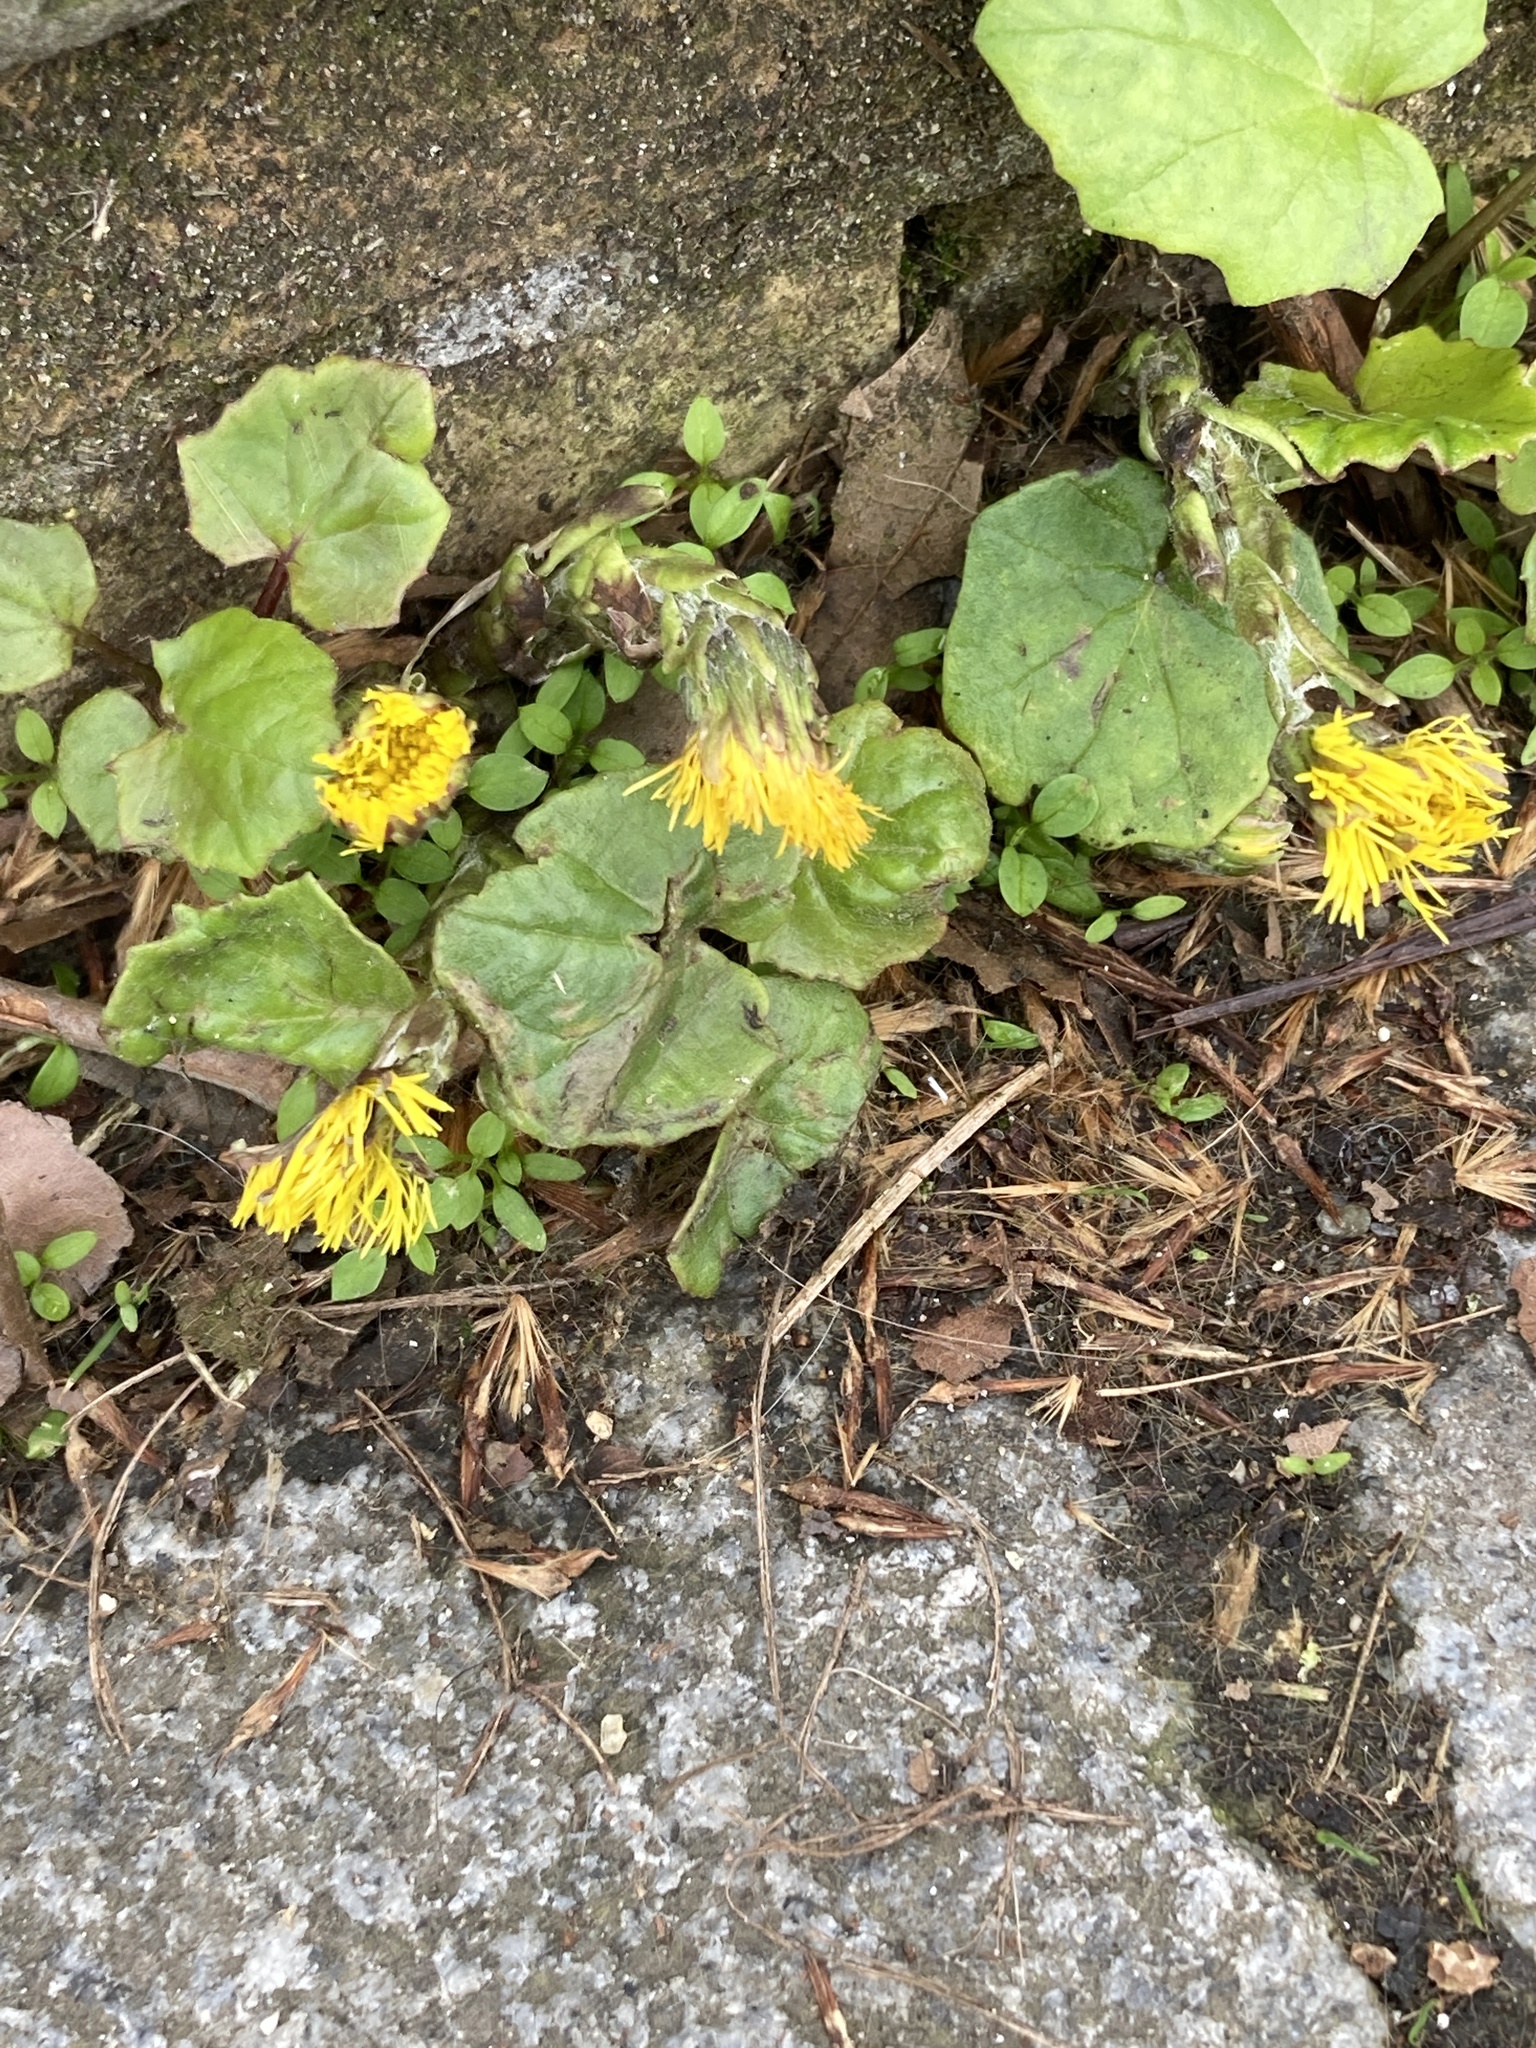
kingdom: Plantae
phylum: Tracheophyta
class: Magnoliopsida
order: Asterales
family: Asteraceae
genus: Tussilago
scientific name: Tussilago farfara
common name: Coltsfoot
